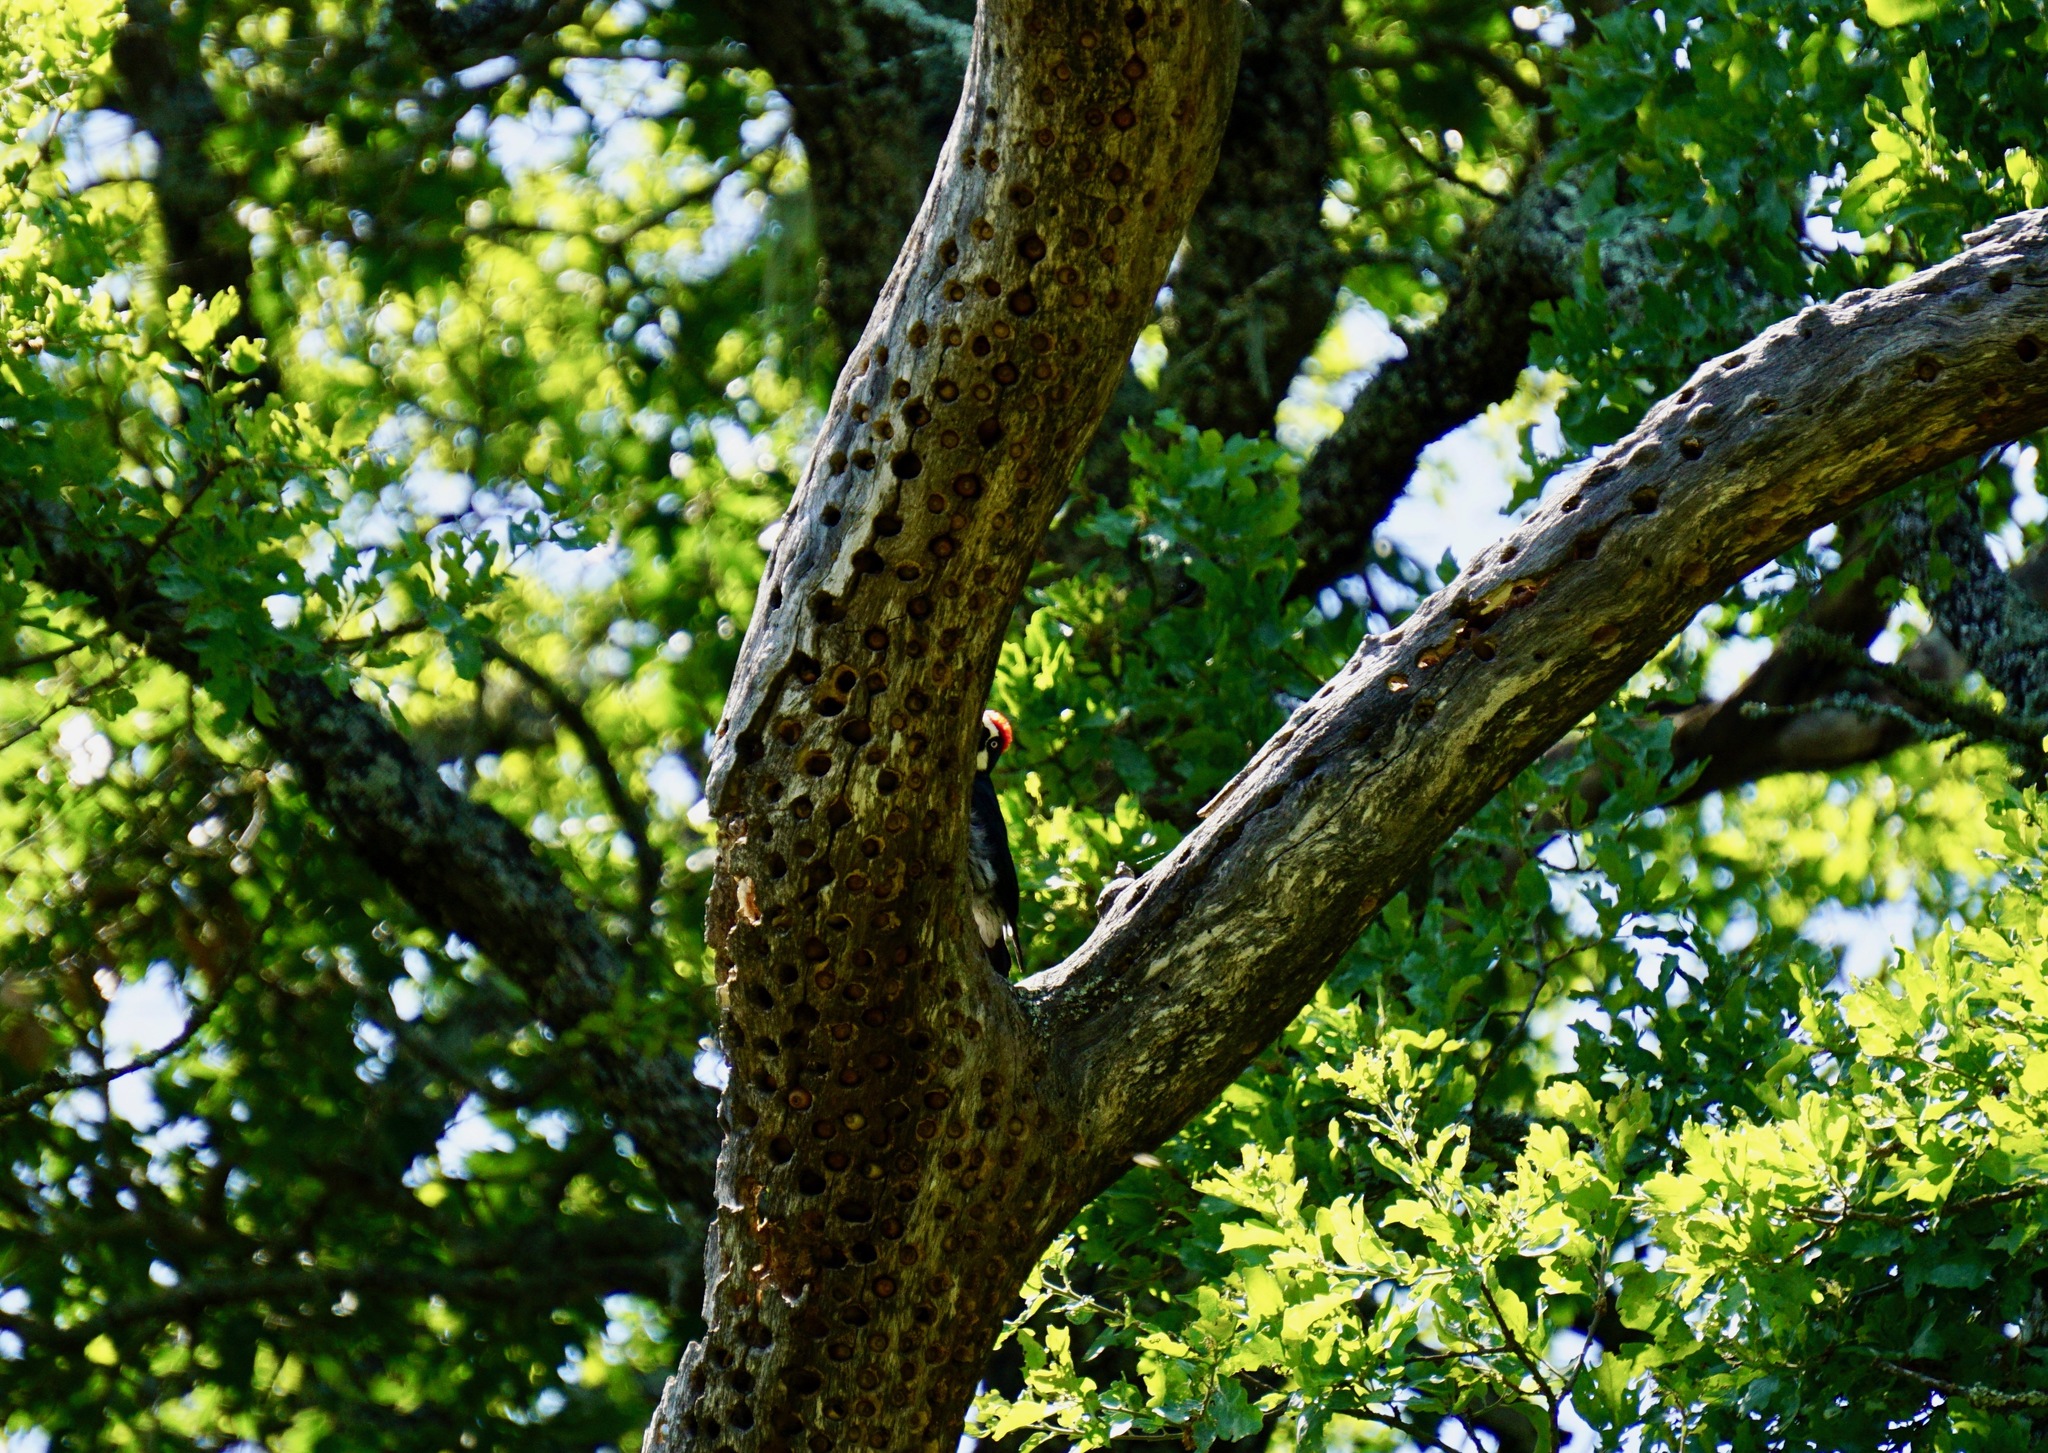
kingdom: Animalia
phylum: Chordata
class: Aves
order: Piciformes
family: Picidae
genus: Melanerpes
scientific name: Melanerpes formicivorus
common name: Acorn woodpecker
